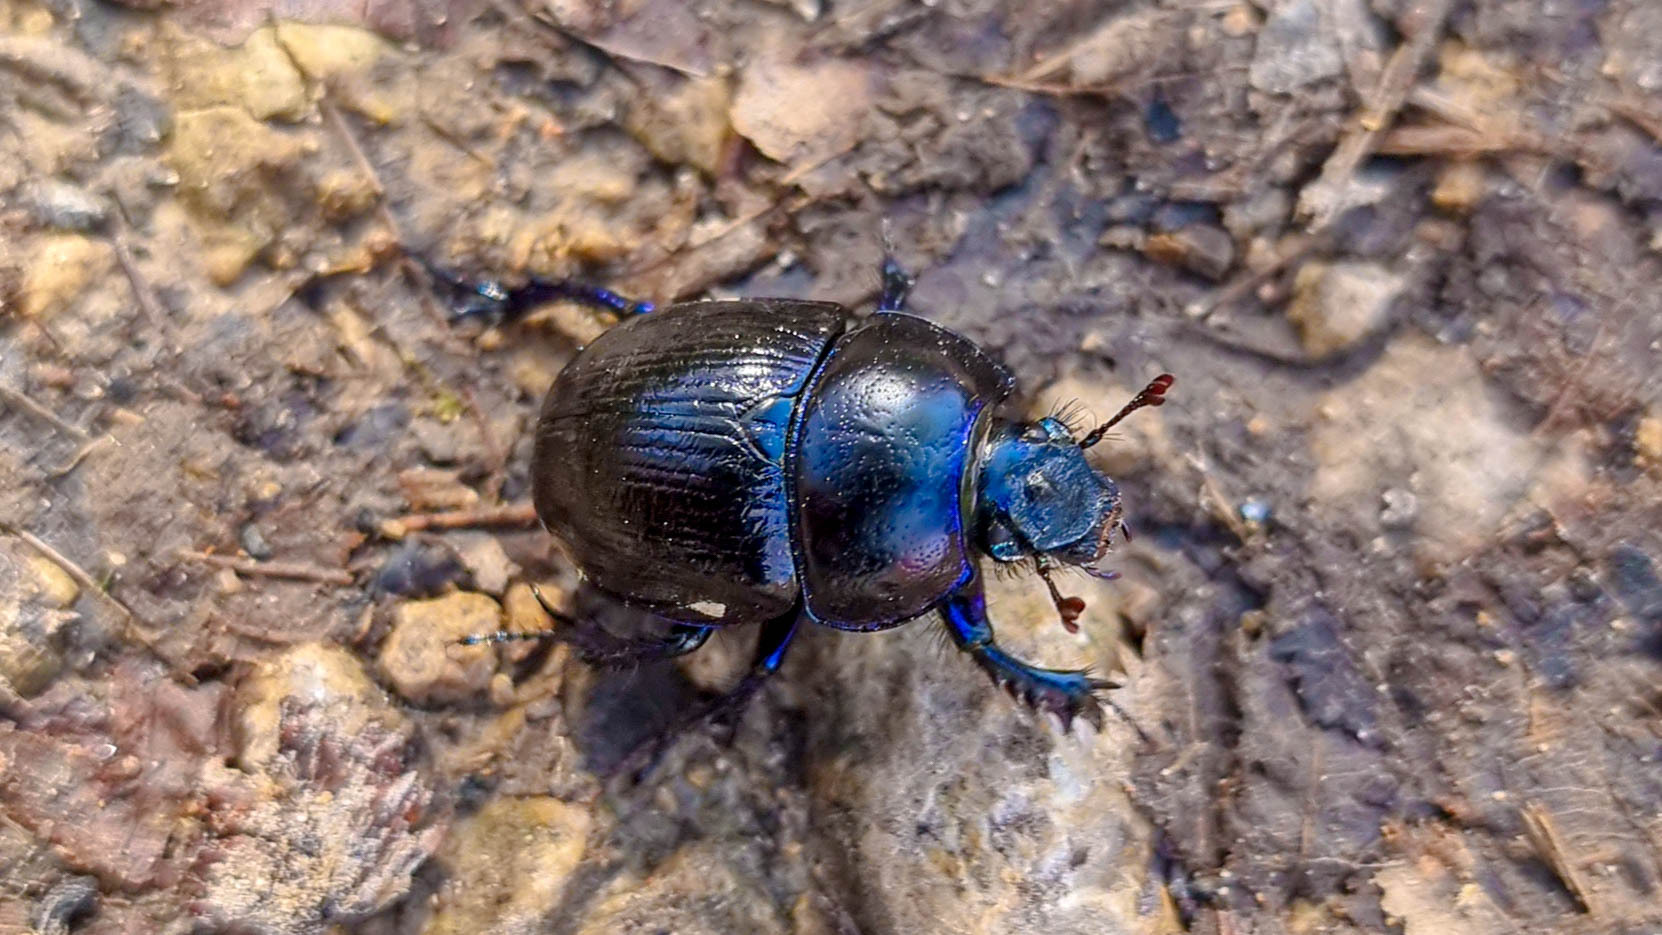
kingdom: Animalia
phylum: Arthropoda
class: Insecta
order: Coleoptera
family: Geotrupidae
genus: Anoplotrupes
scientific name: Anoplotrupes stercorosus
